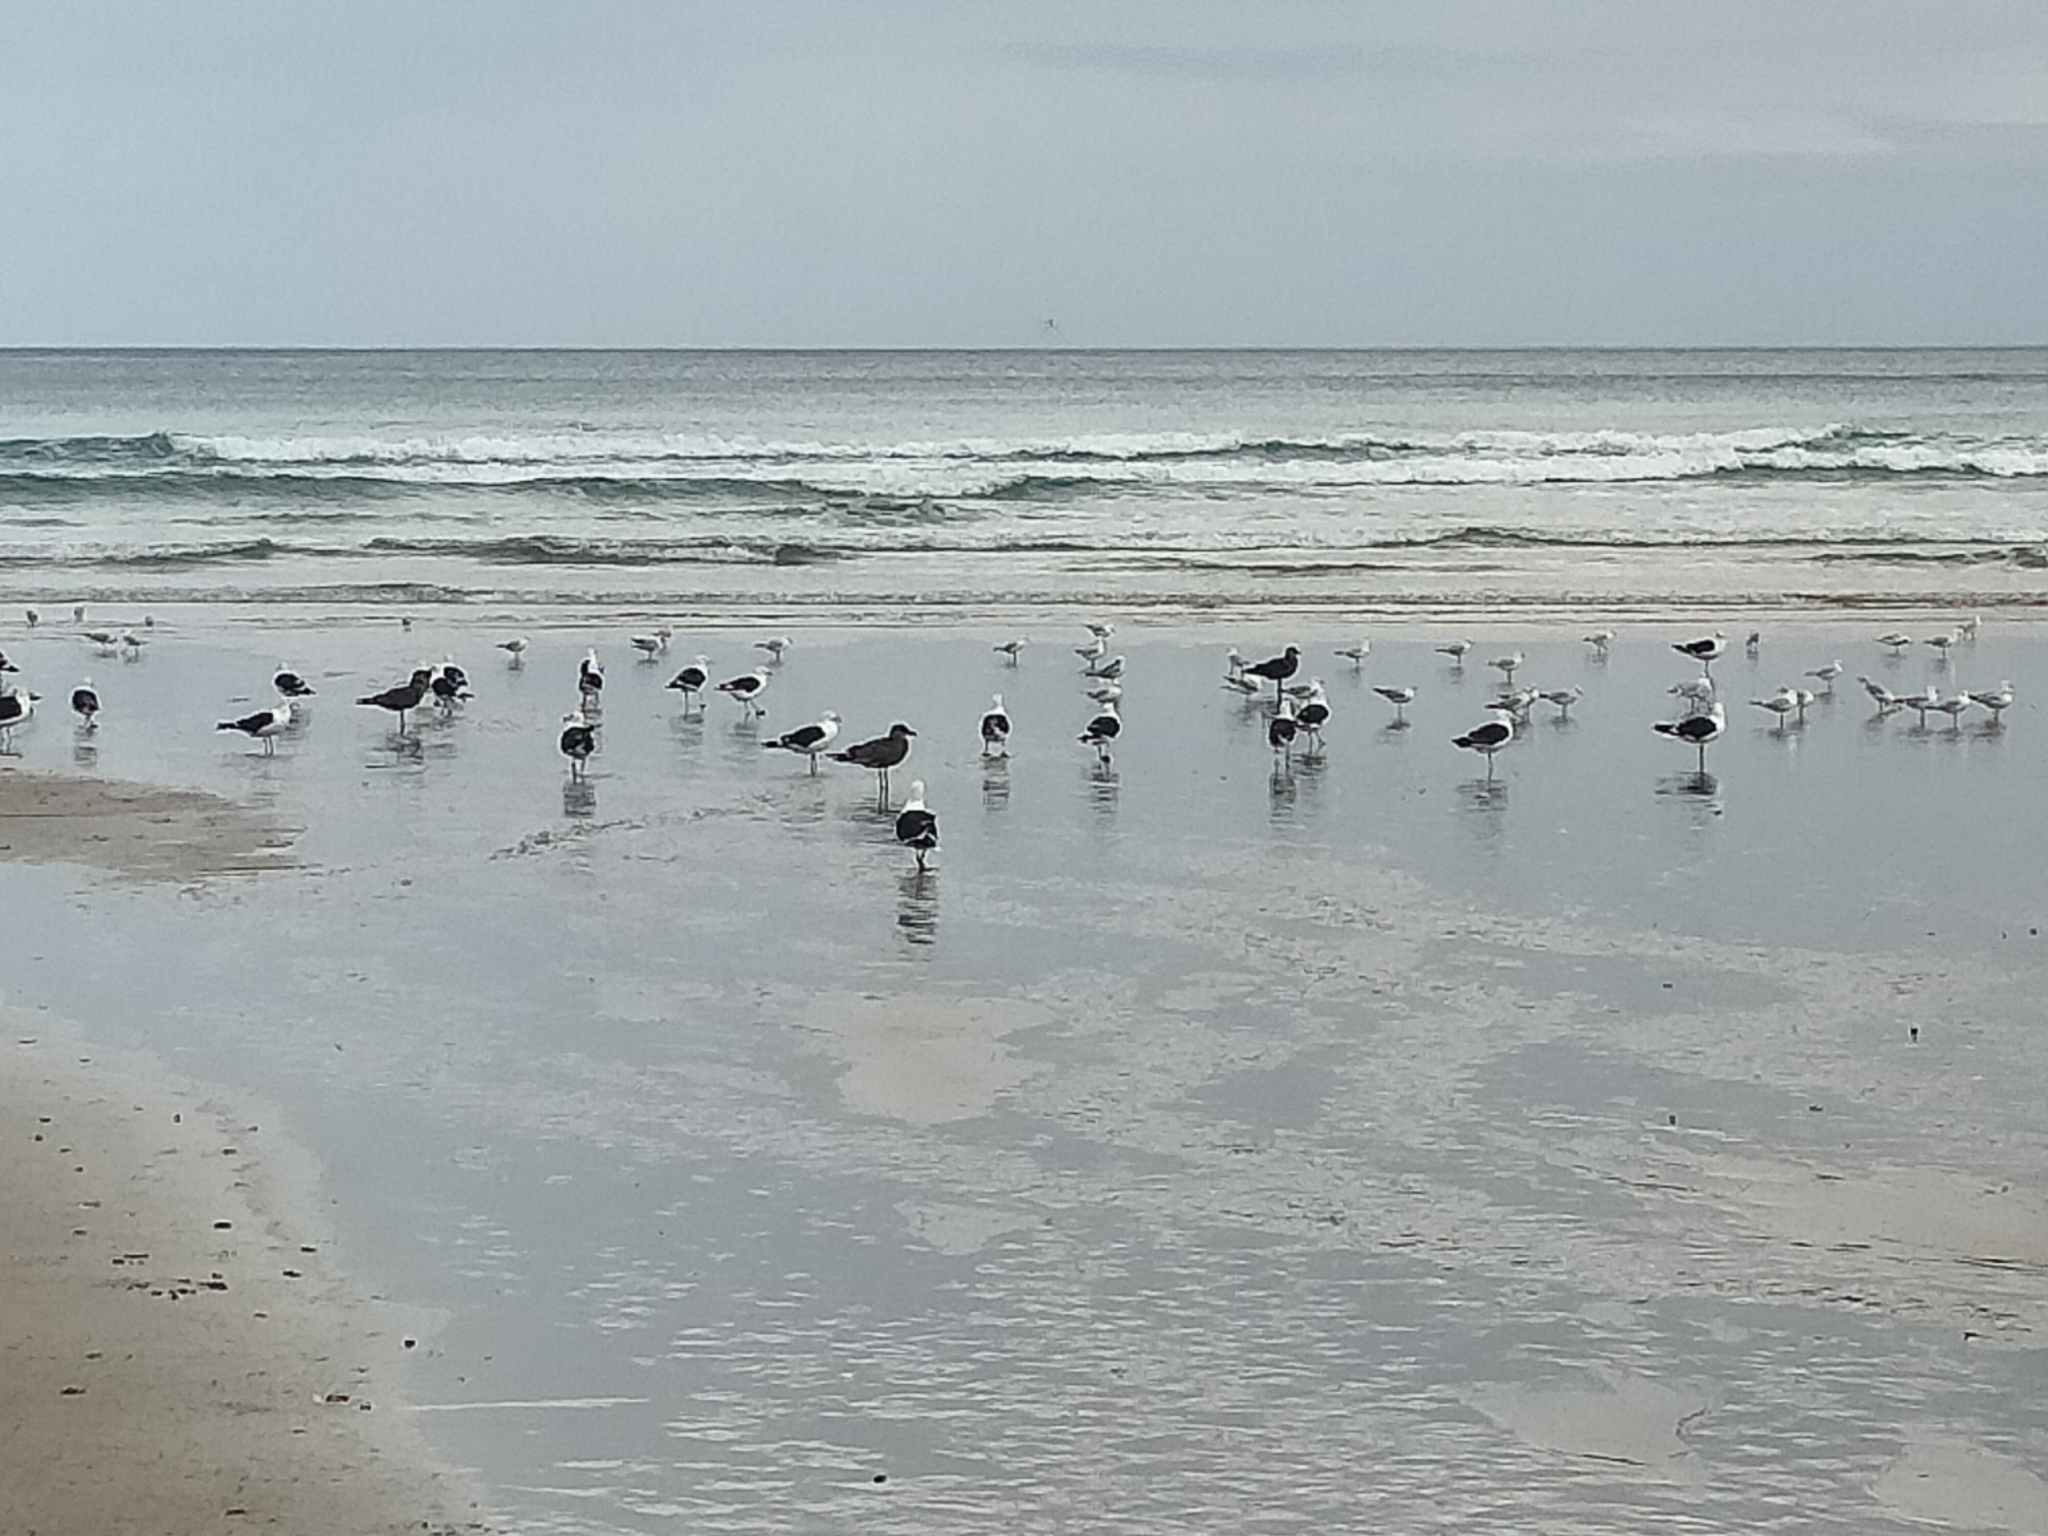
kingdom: Animalia
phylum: Chordata
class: Aves
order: Charadriiformes
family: Laridae
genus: Larus
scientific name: Larus dominicanus
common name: Kelp gull
